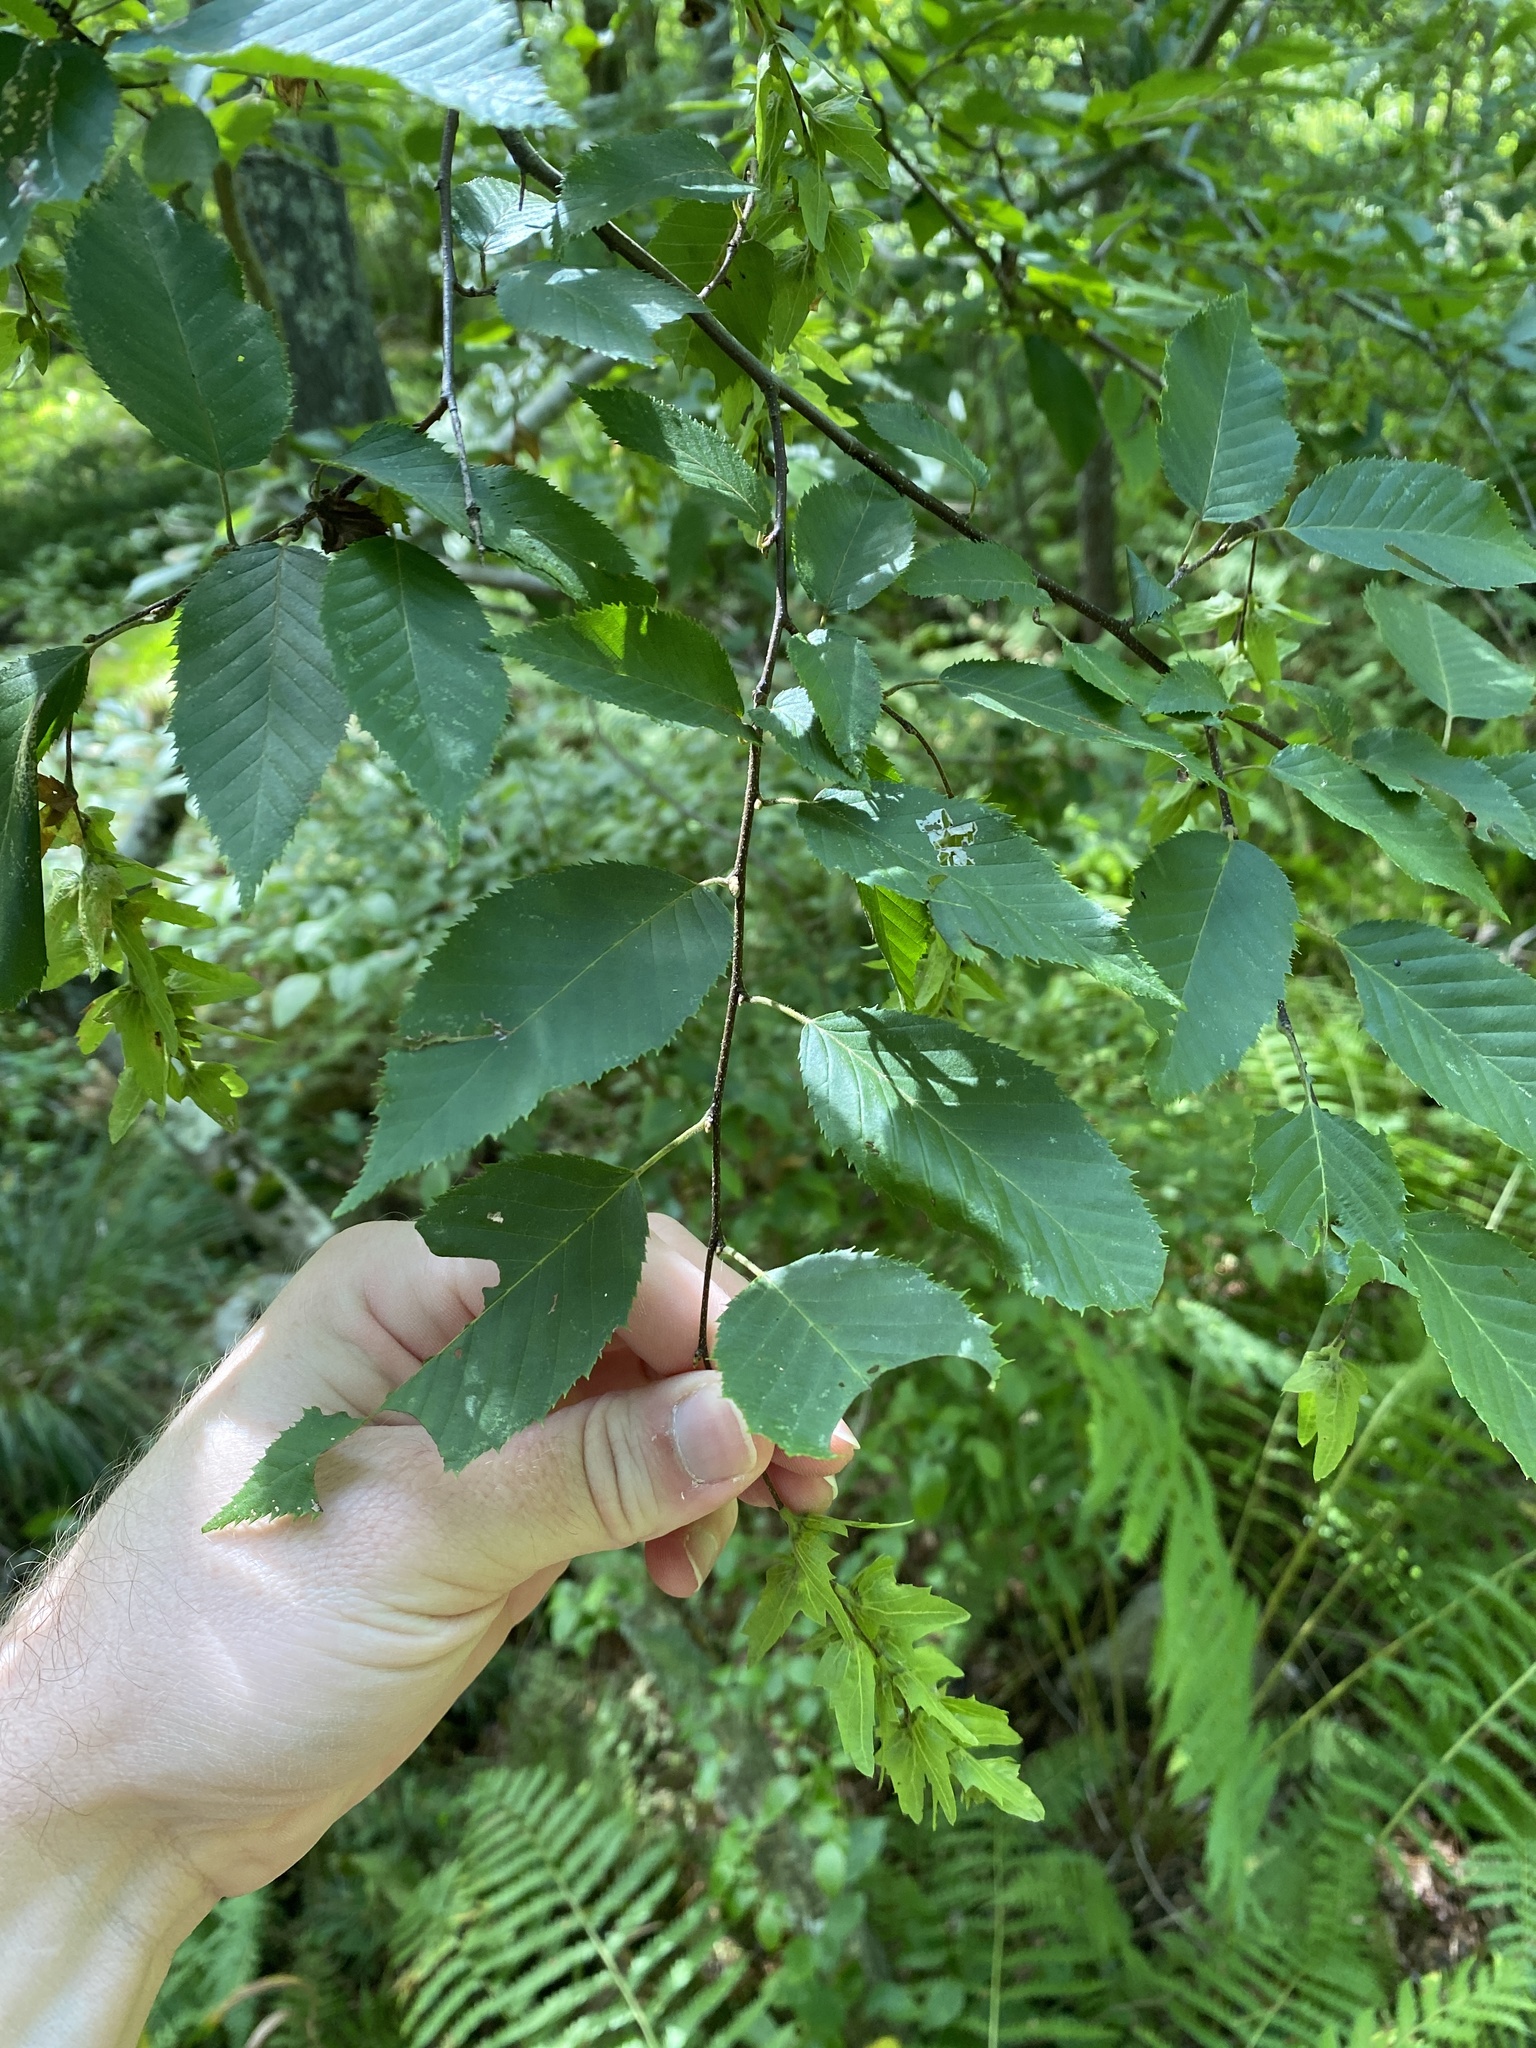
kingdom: Plantae
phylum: Tracheophyta
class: Magnoliopsida
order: Fagales
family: Betulaceae
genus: Carpinus
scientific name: Carpinus caroliniana
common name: American hornbeam
